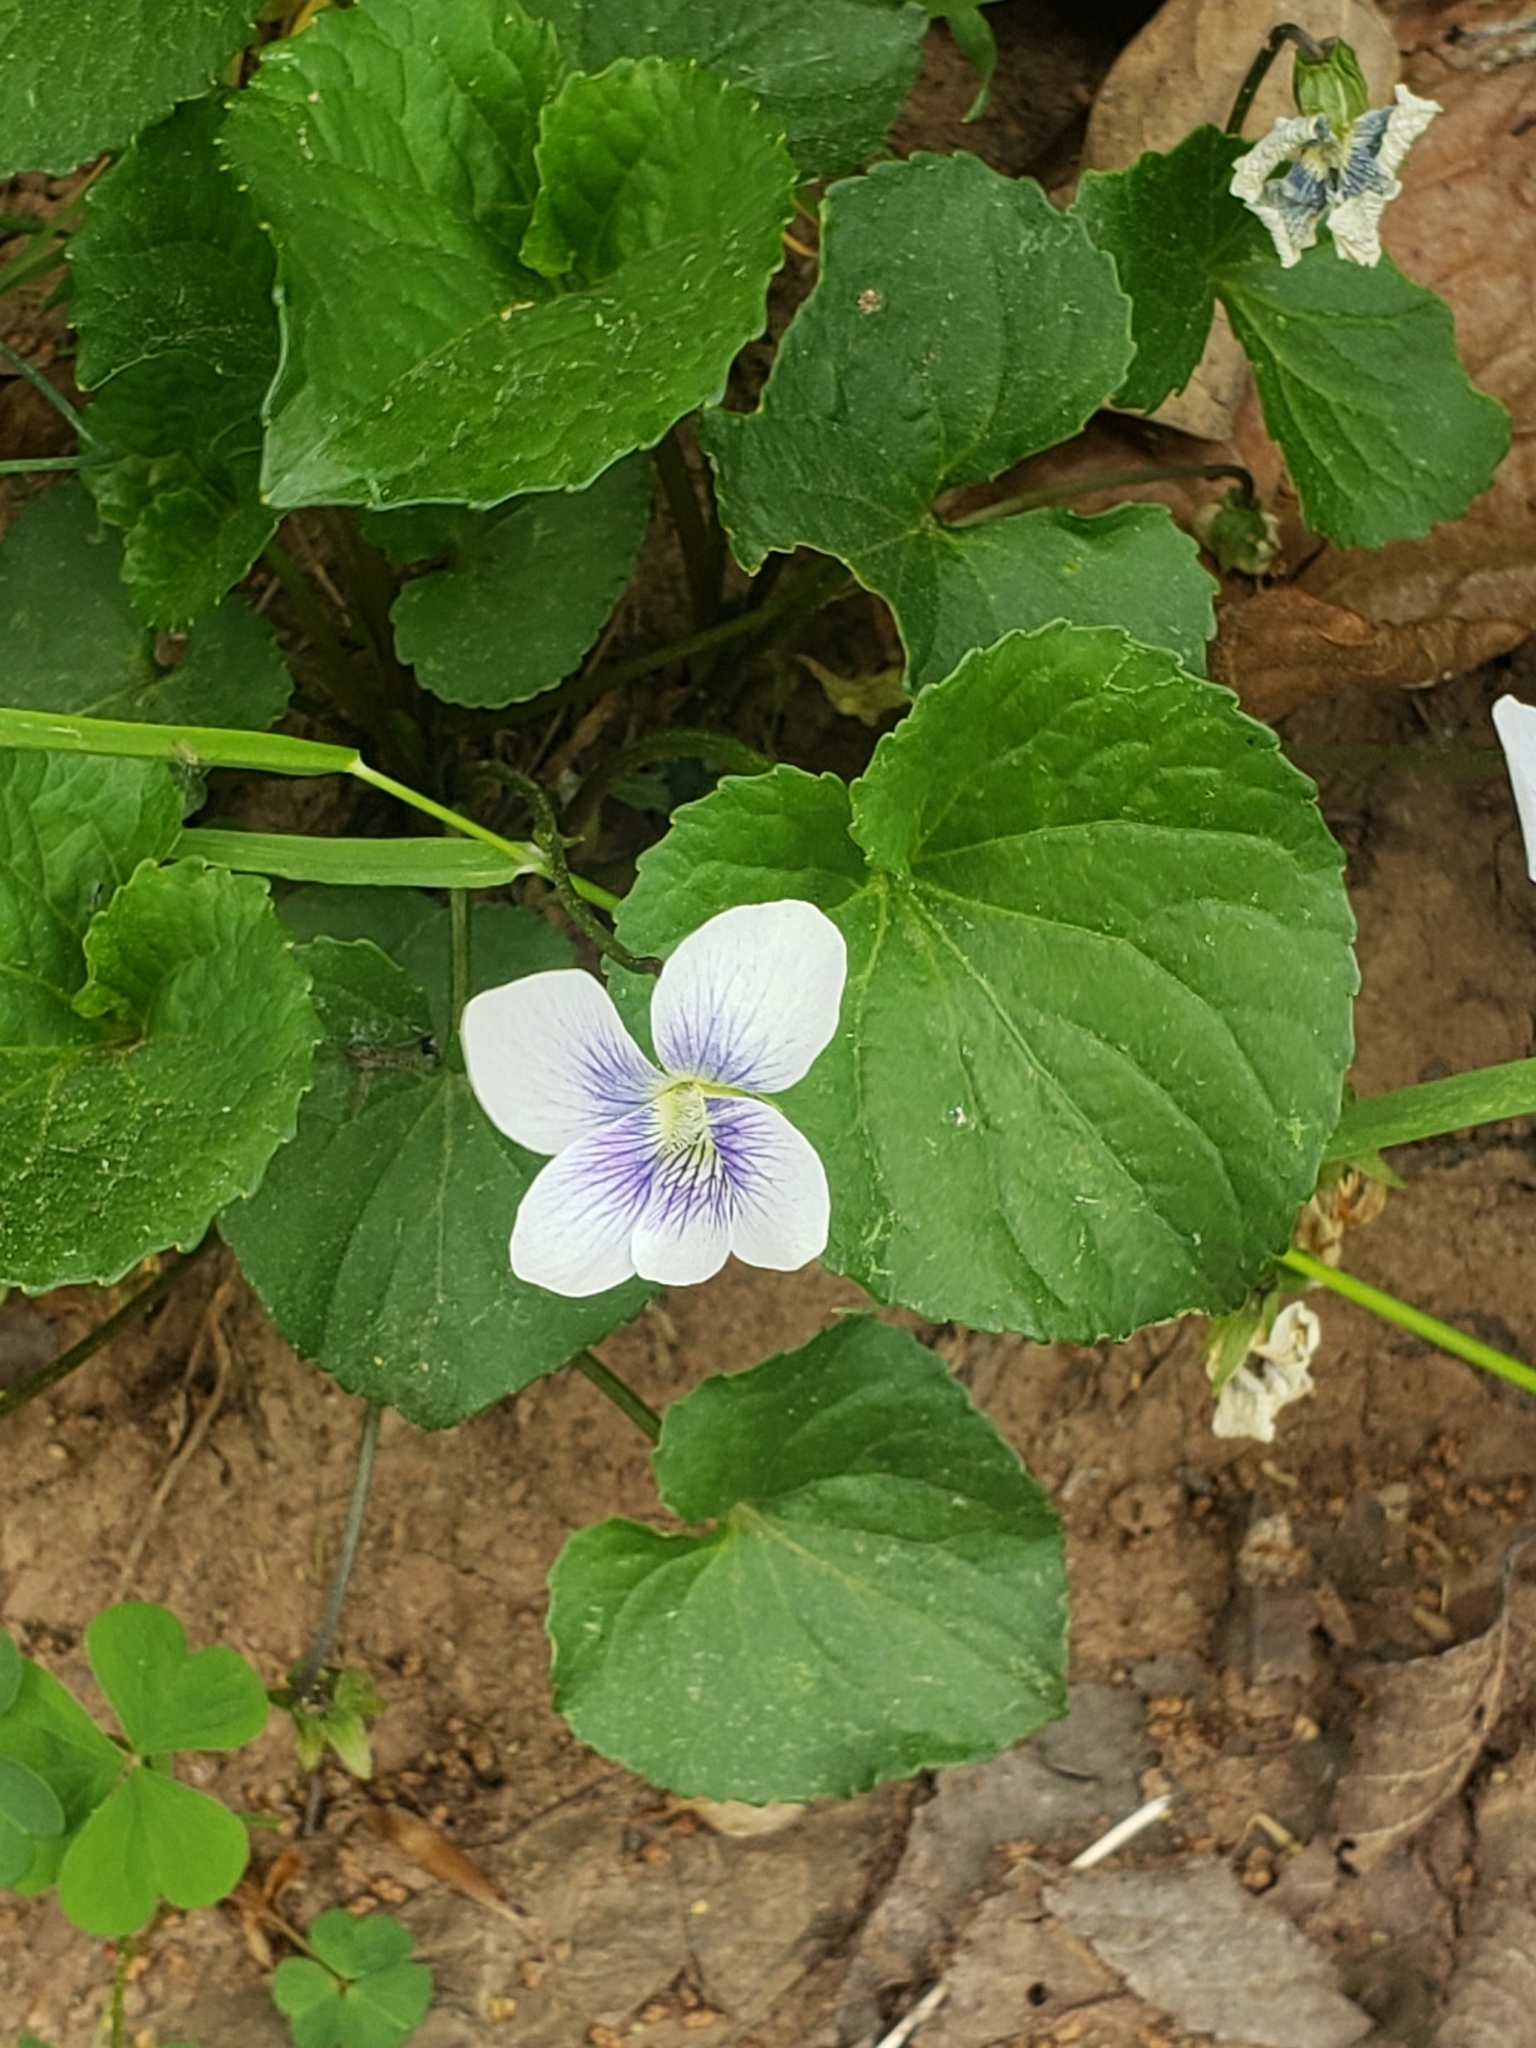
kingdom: Plantae
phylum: Tracheophyta
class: Magnoliopsida
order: Malpighiales
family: Violaceae
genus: Viola
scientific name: Viola sororia
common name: Dooryard violet
